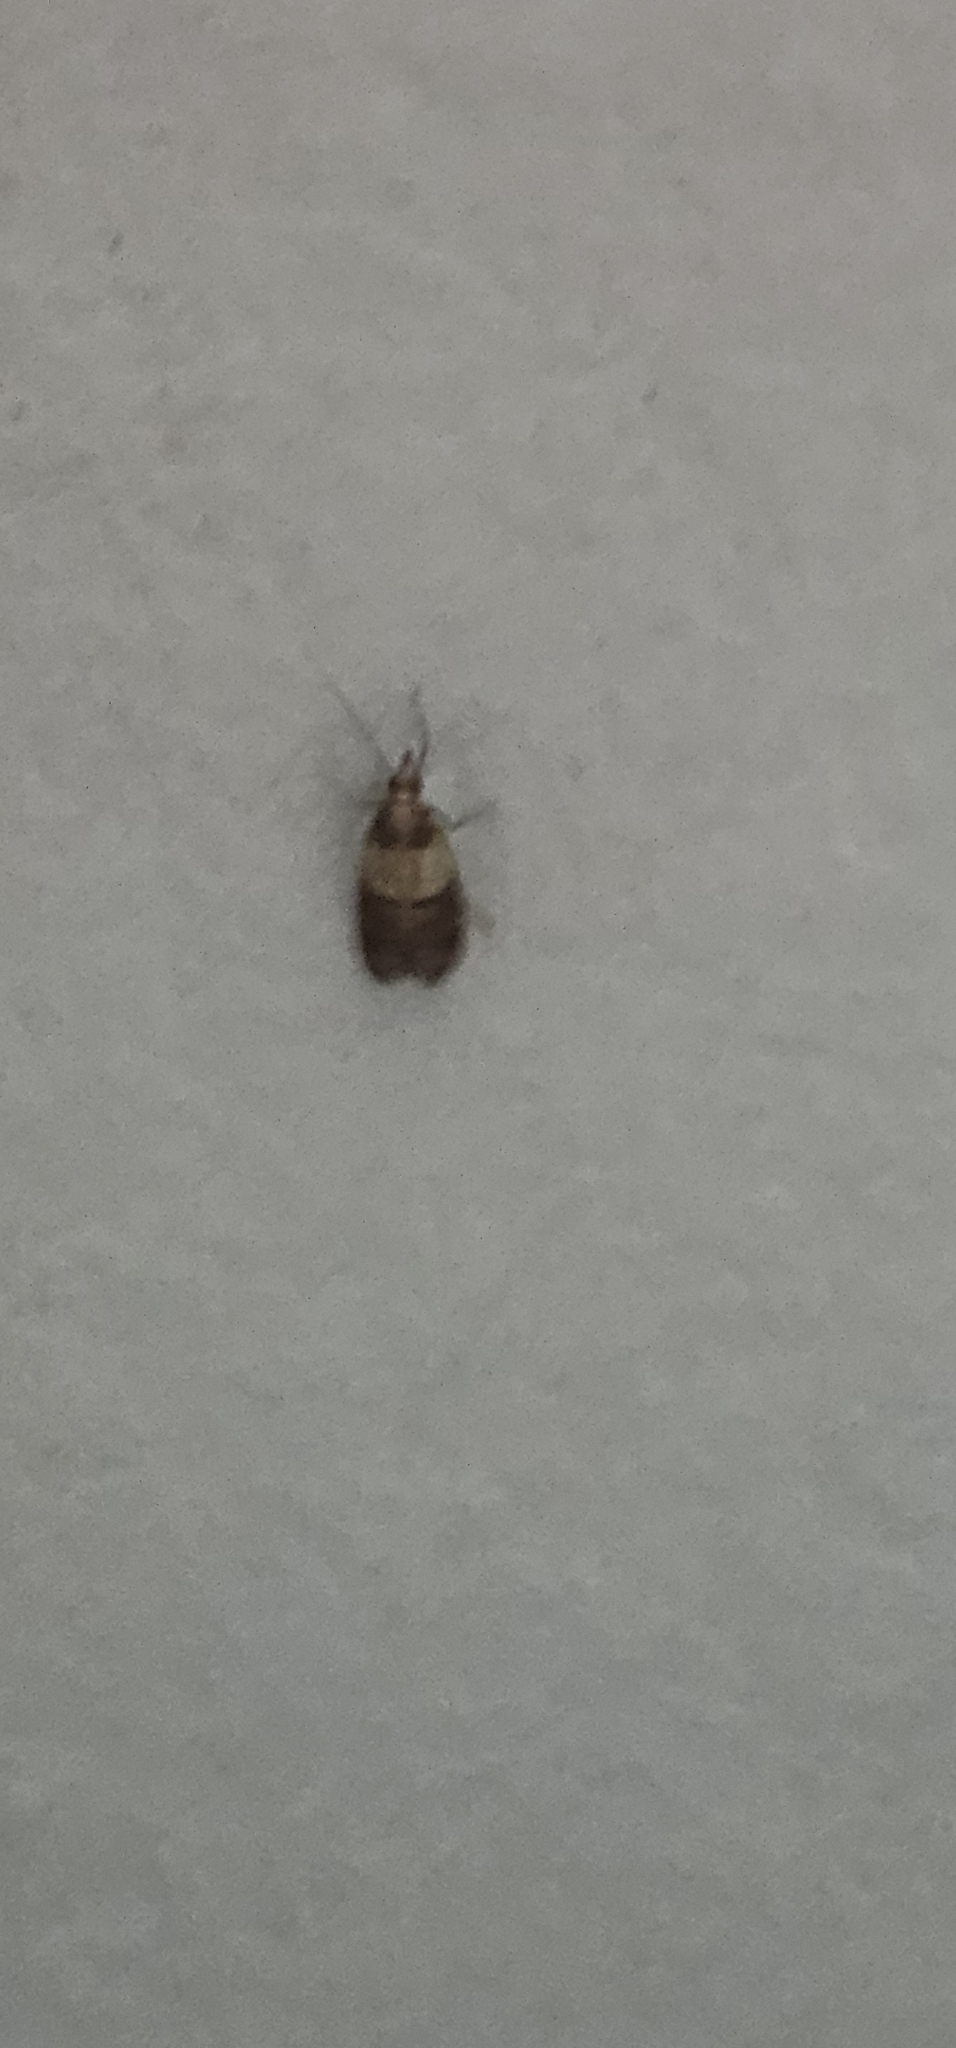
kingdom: Animalia
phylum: Arthropoda
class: Insecta
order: Lepidoptera
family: Pyralidae
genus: Plodia
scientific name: Plodia interpunctella
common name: Indian meal moth
